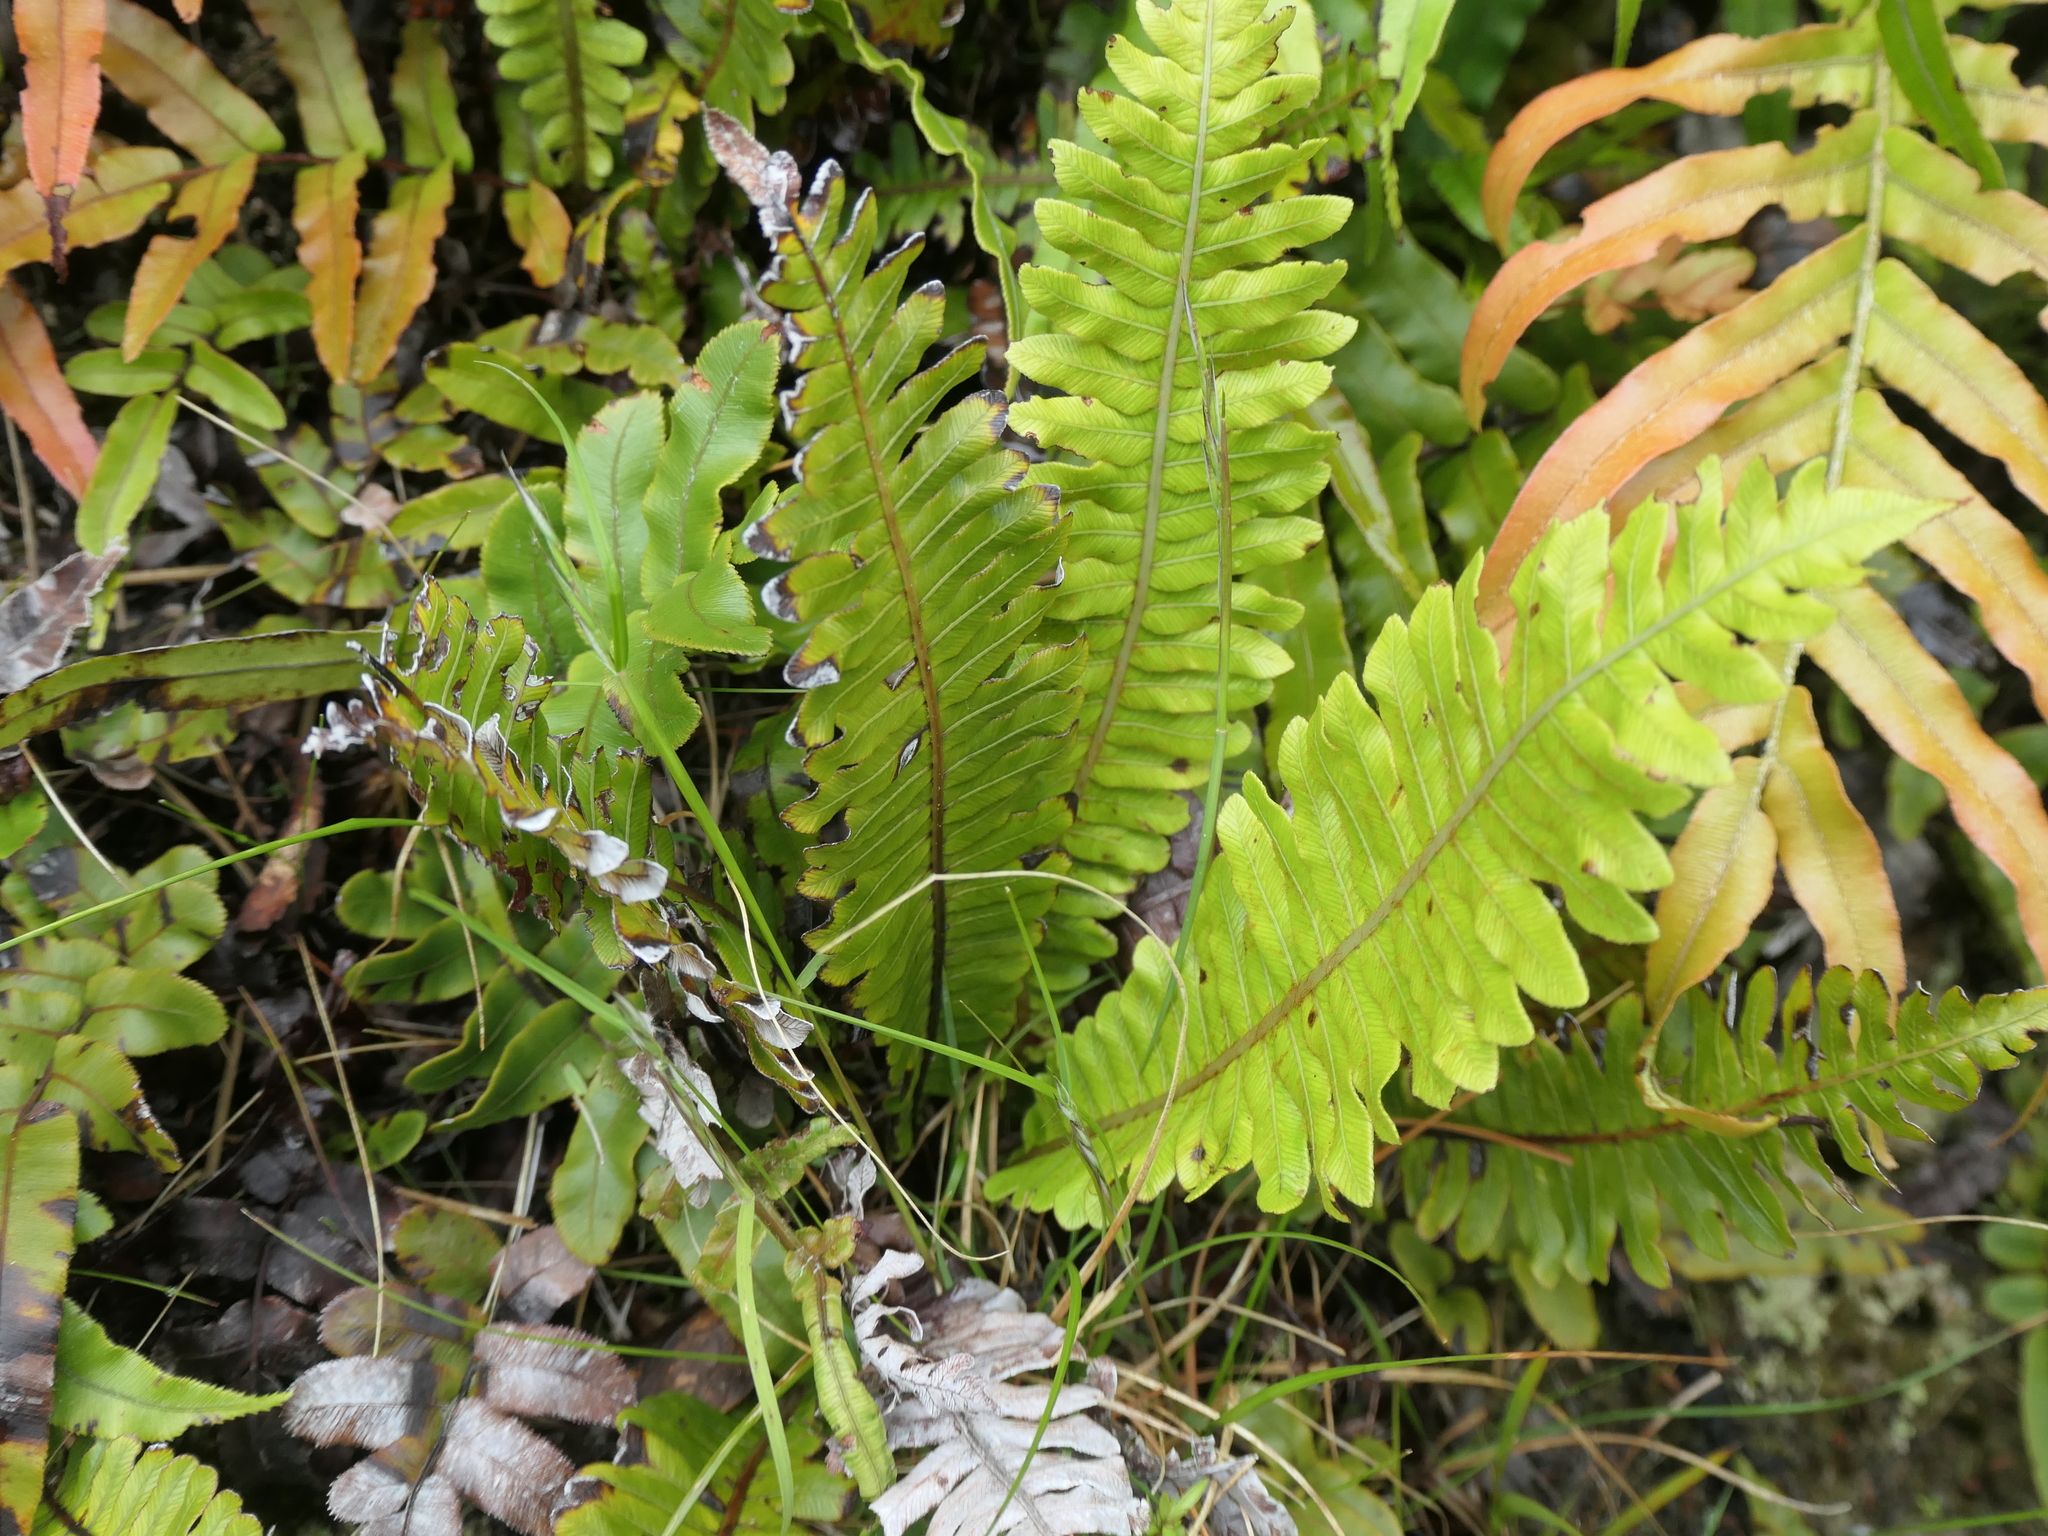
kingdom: Plantae
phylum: Tracheophyta
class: Polypodiopsida
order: Polypodiales
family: Blechnaceae
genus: Lomaria
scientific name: Lomaria discolor
